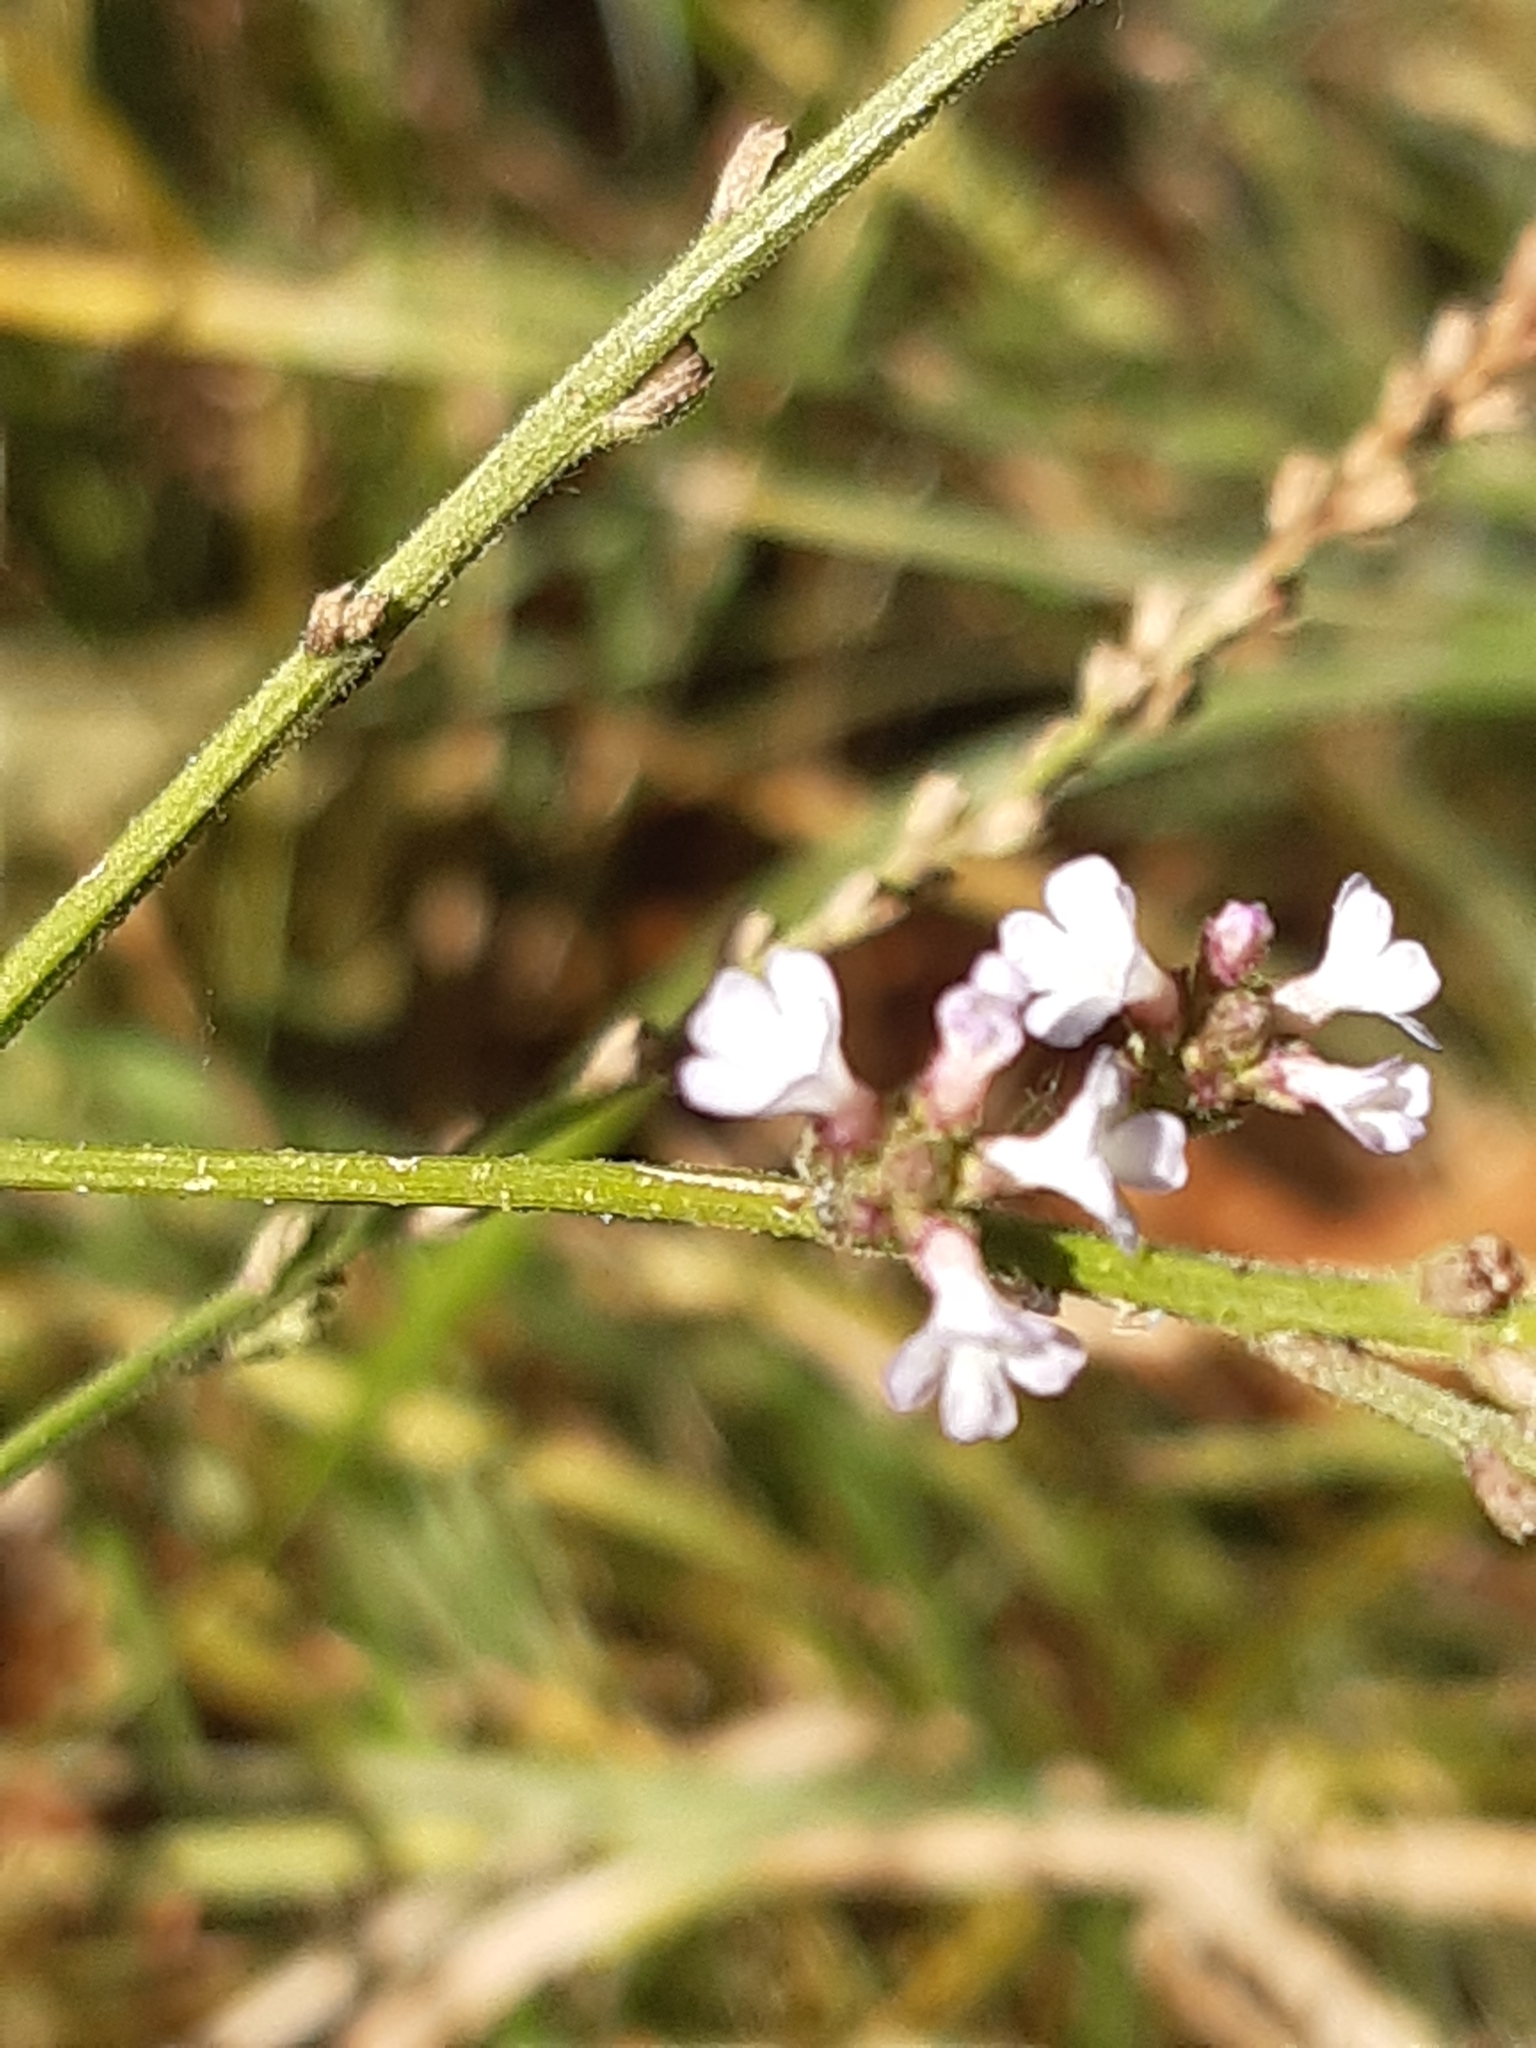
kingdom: Plantae
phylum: Tracheophyta
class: Magnoliopsida
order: Lamiales
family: Verbenaceae
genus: Verbena
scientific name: Verbena officinalis
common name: Vervain
